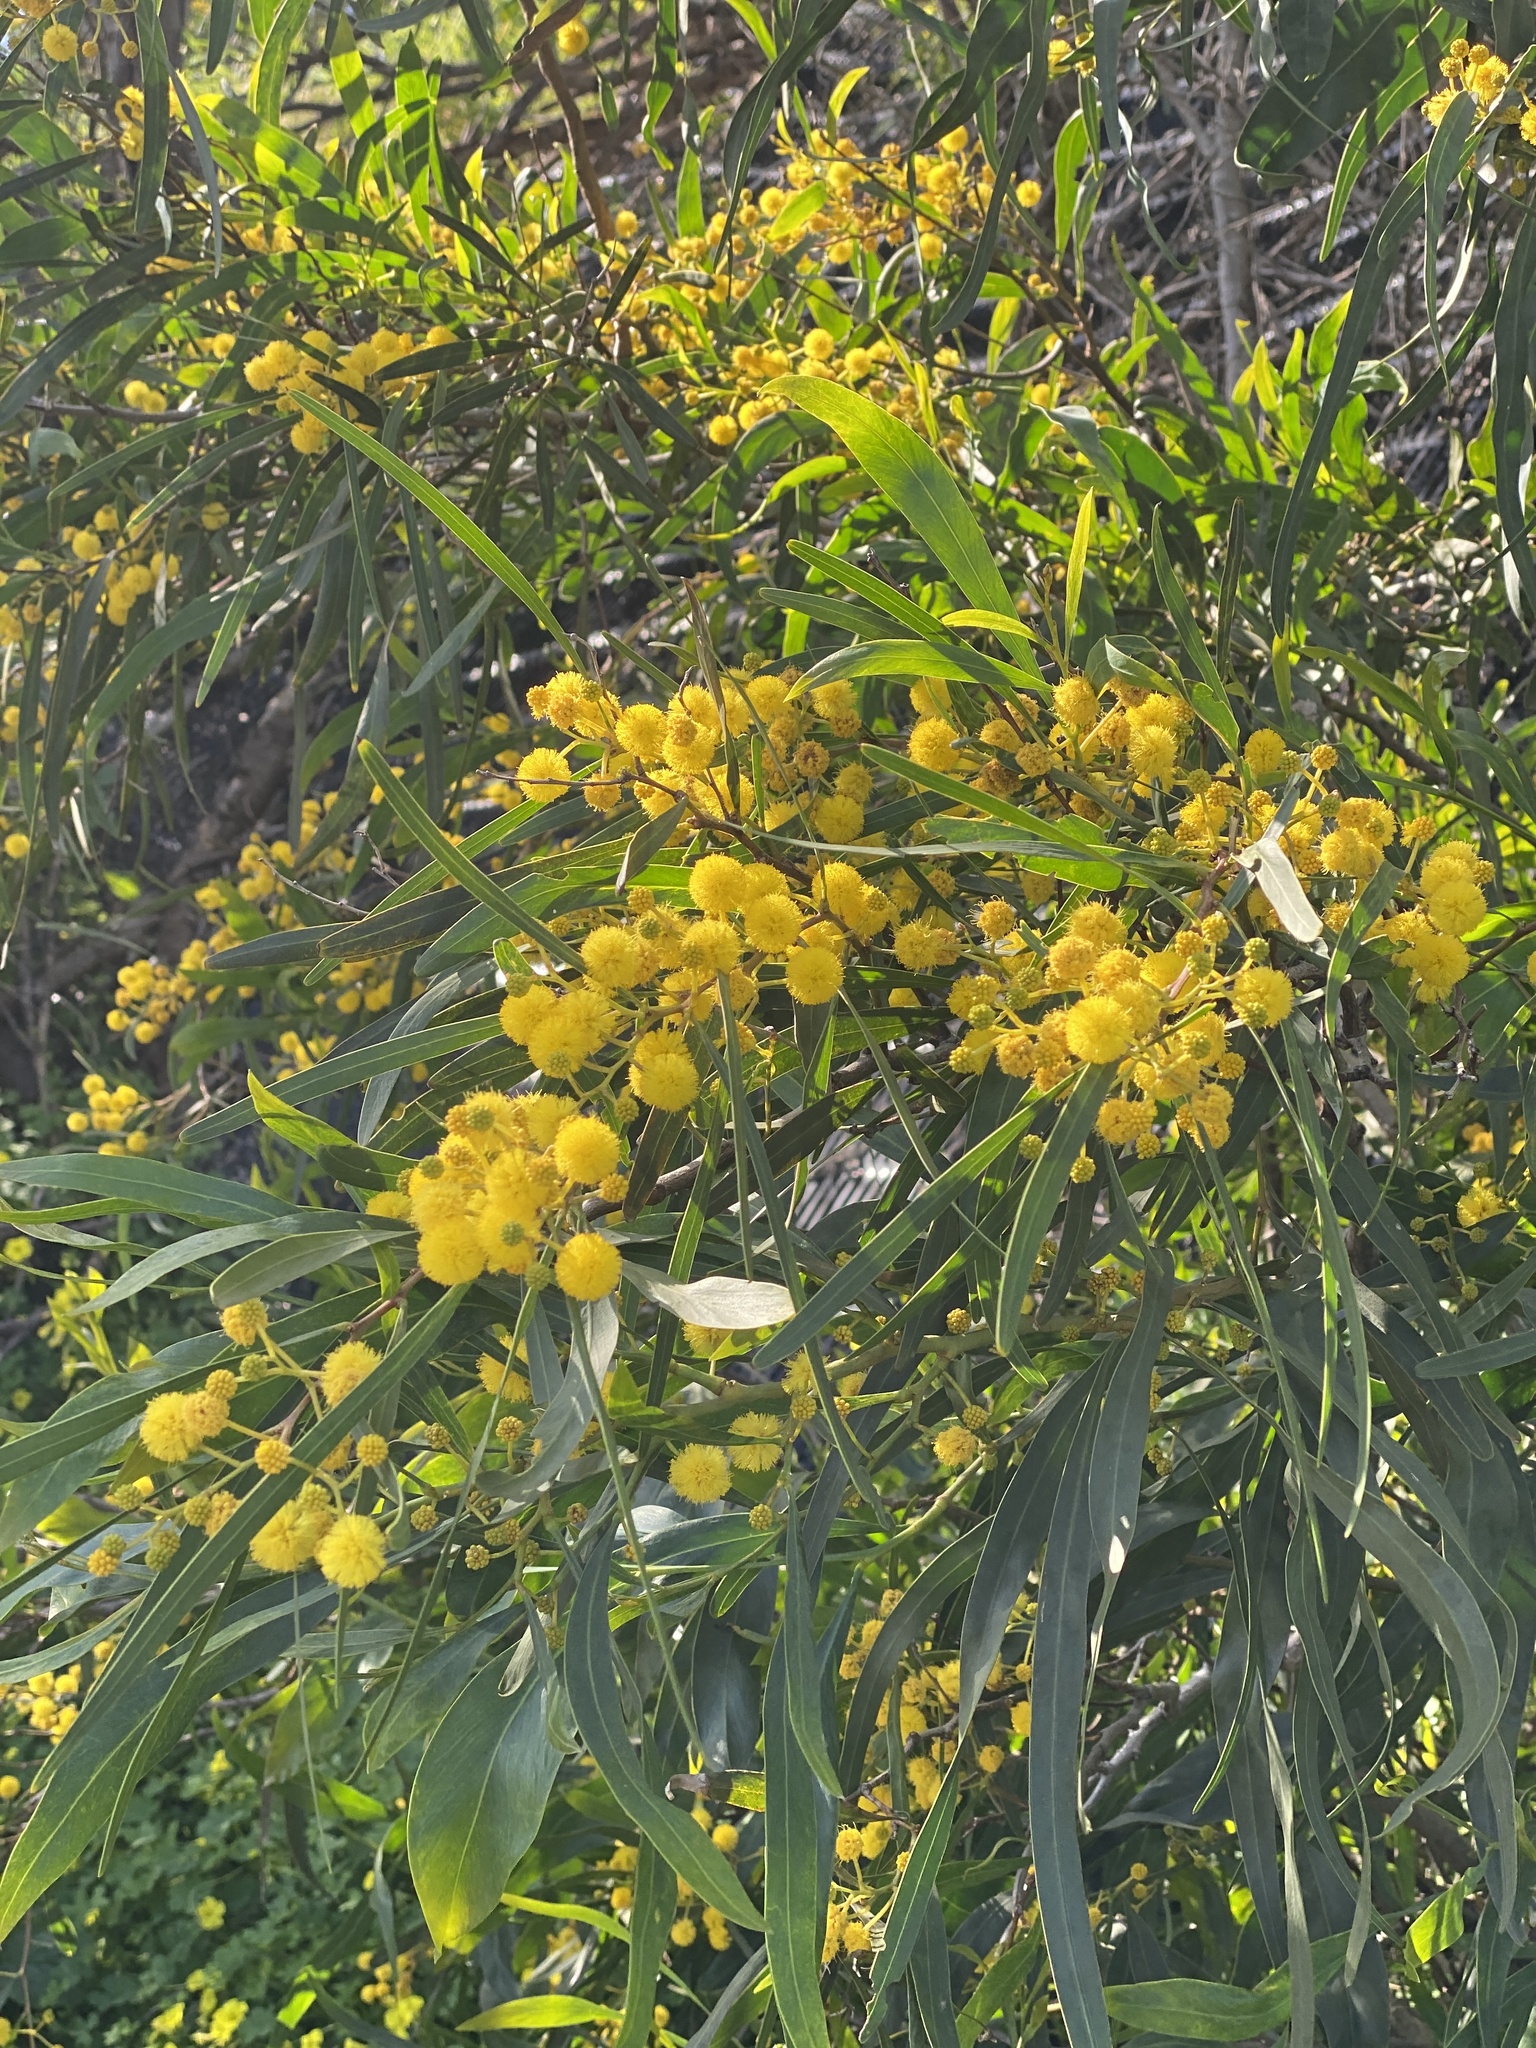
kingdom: Plantae
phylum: Tracheophyta
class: Magnoliopsida
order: Fabales
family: Fabaceae
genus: Acacia
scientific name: Acacia saligna
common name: Orange wattle
